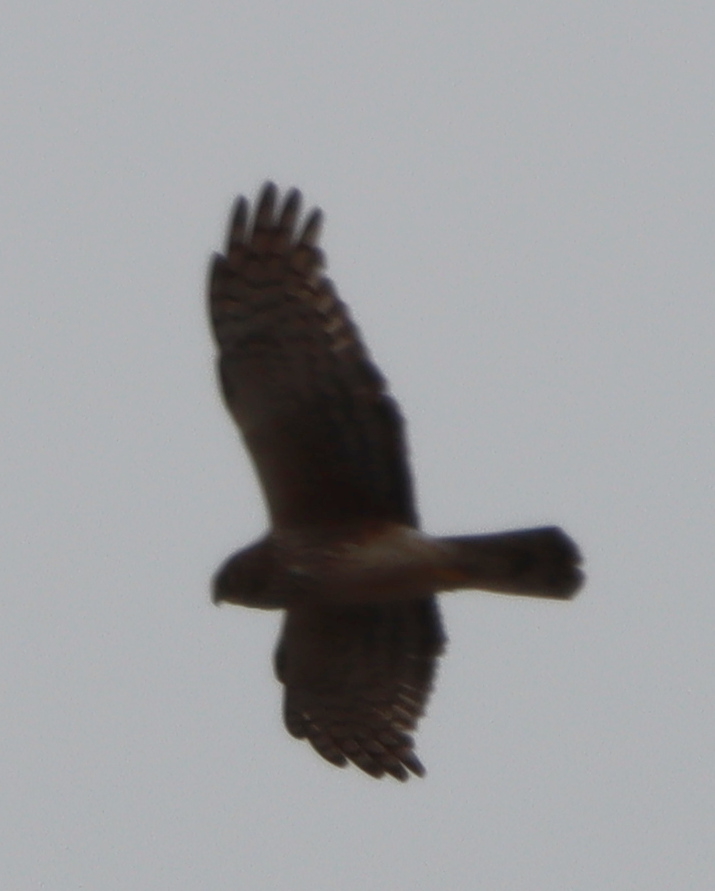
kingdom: Animalia
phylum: Chordata
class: Aves
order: Accipitriformes
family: Accipitridae
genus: Circus
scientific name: Circus cyaneus
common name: Hen harrier
